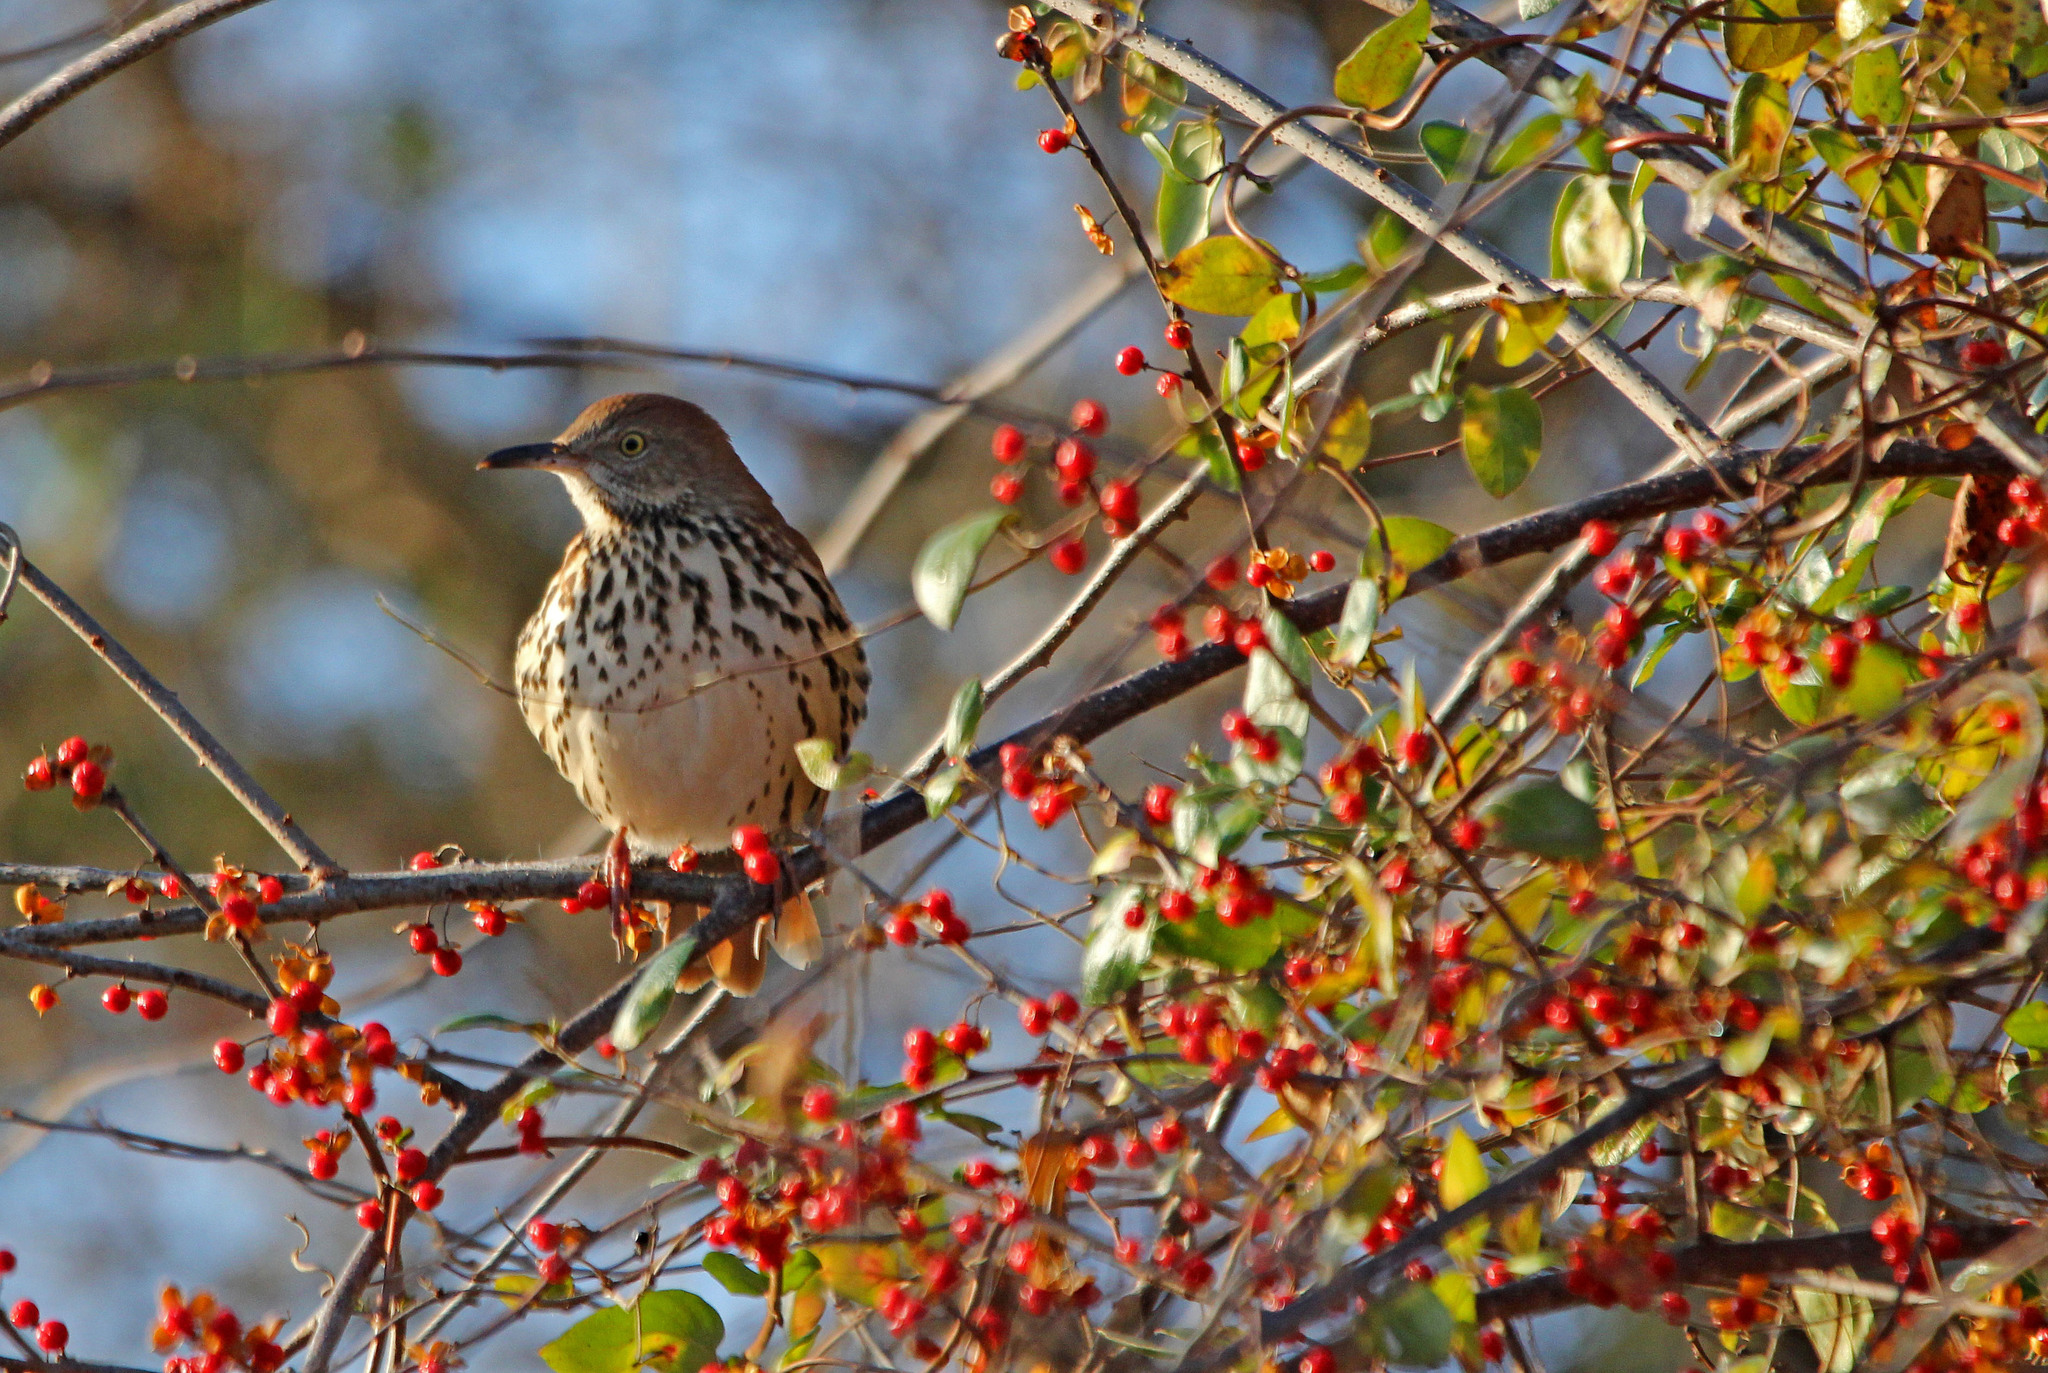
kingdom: Animalia
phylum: Chordata
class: Aves
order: Passeriformes
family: Mimidae
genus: Toxostoma
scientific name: Toxostoma rufum
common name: Brown thrasher
